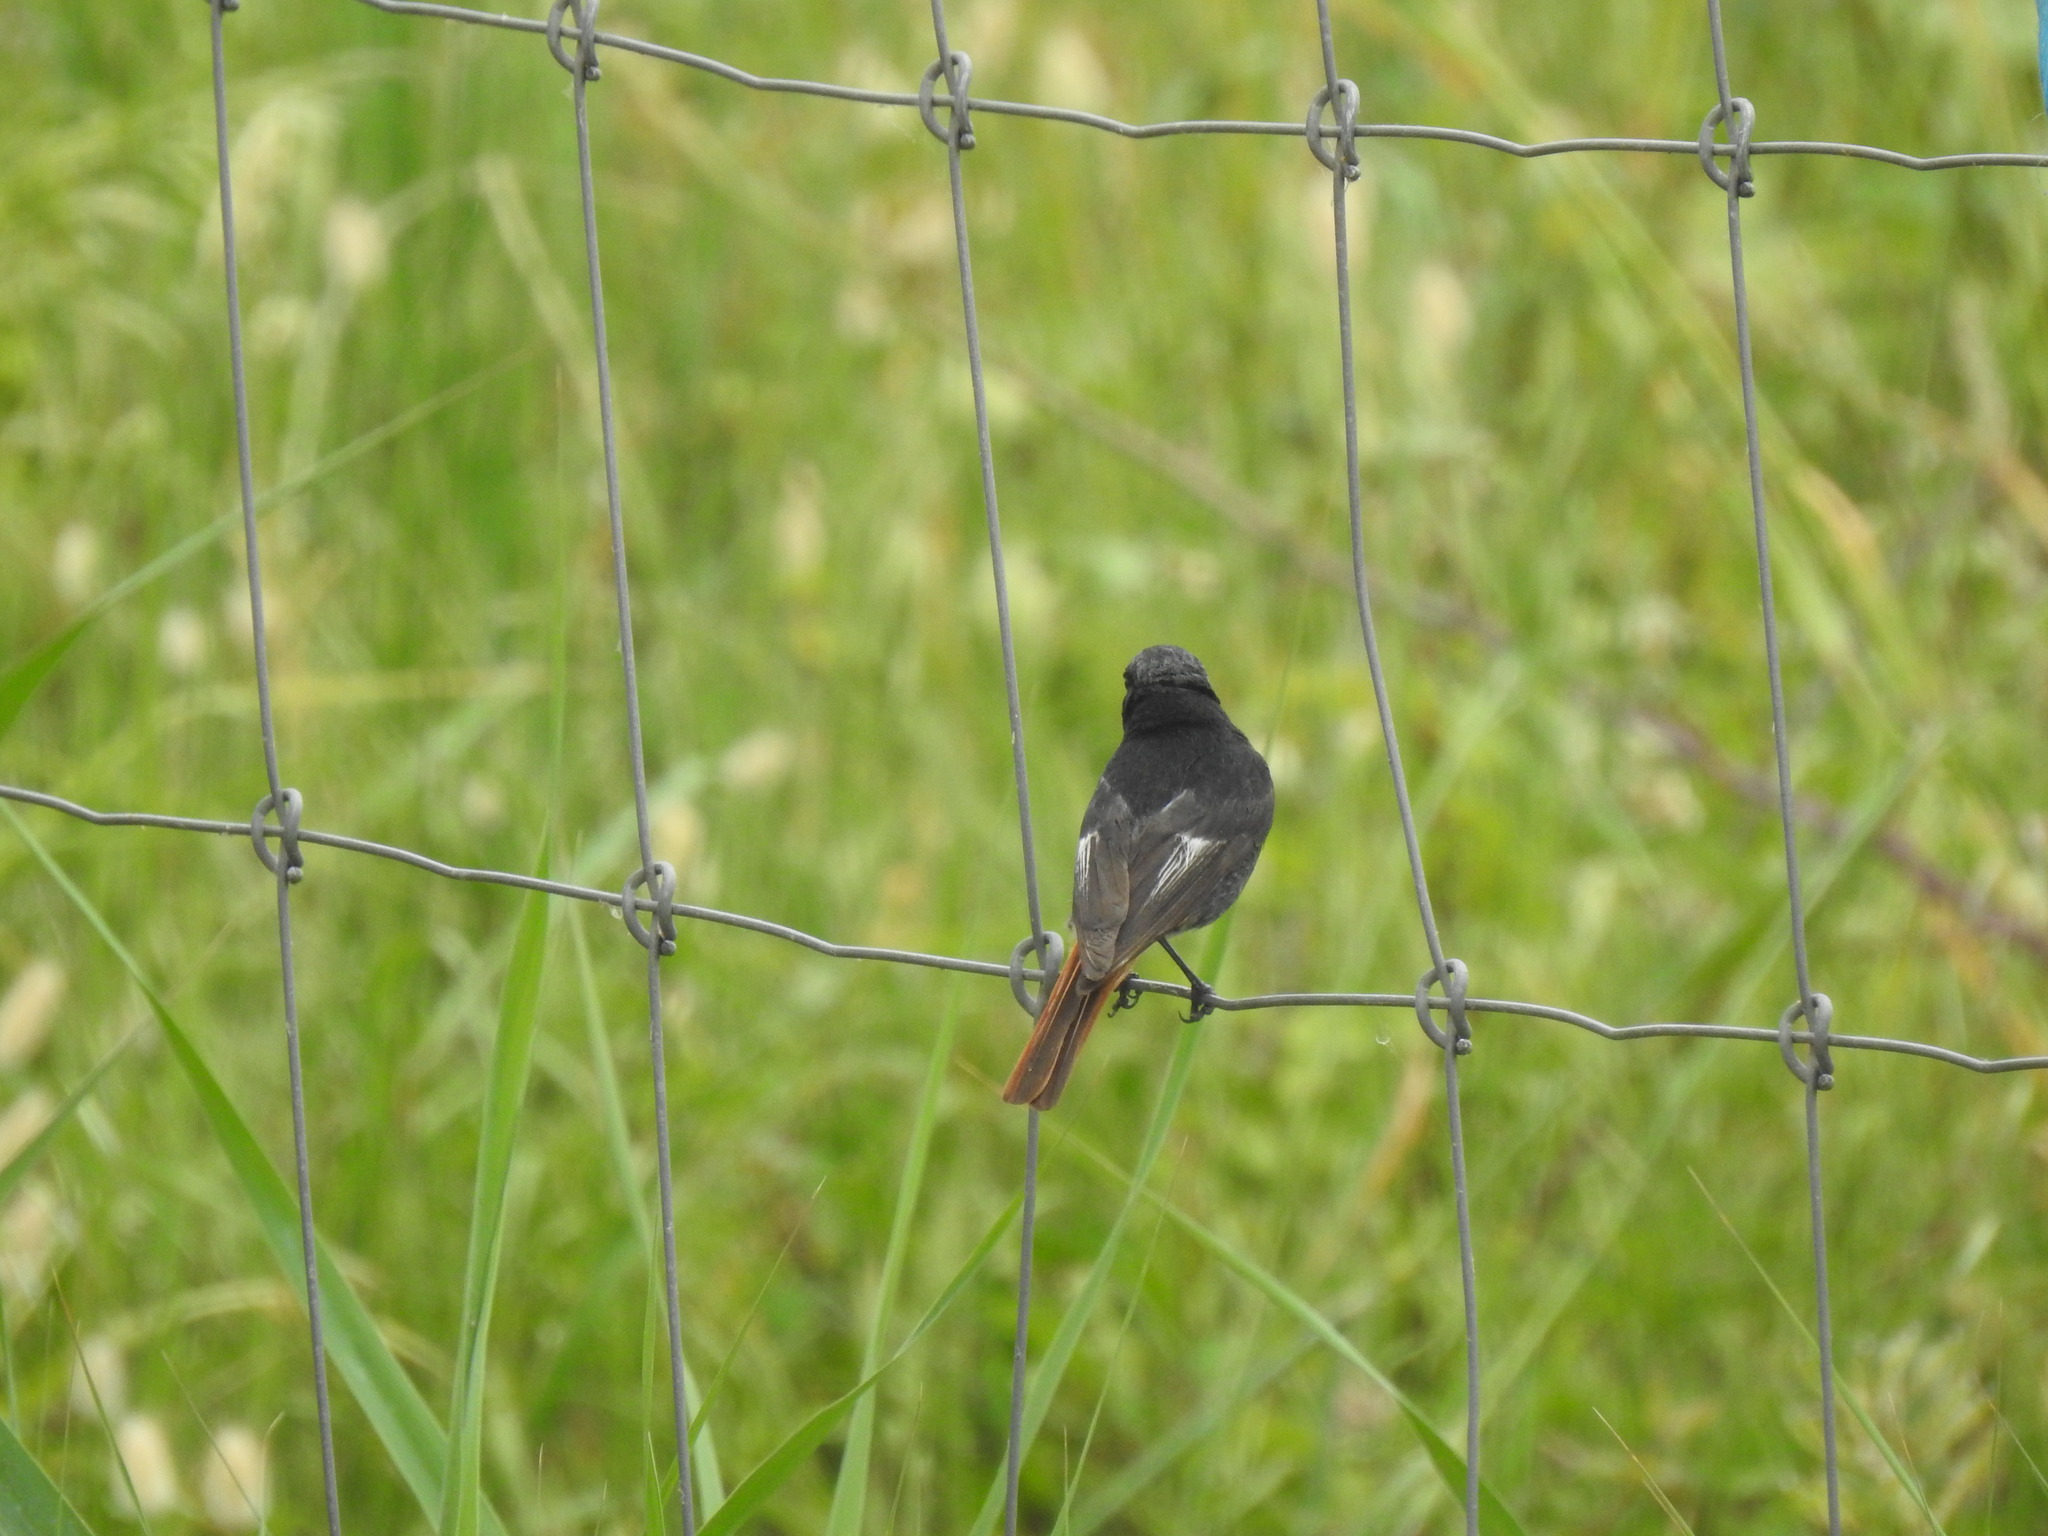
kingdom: Animalia
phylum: Chordata
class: Aves
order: Passeriformes
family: Muscicapidae
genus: Phoenicurus
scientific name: Phoenicurus ochruros
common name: Black redstart
